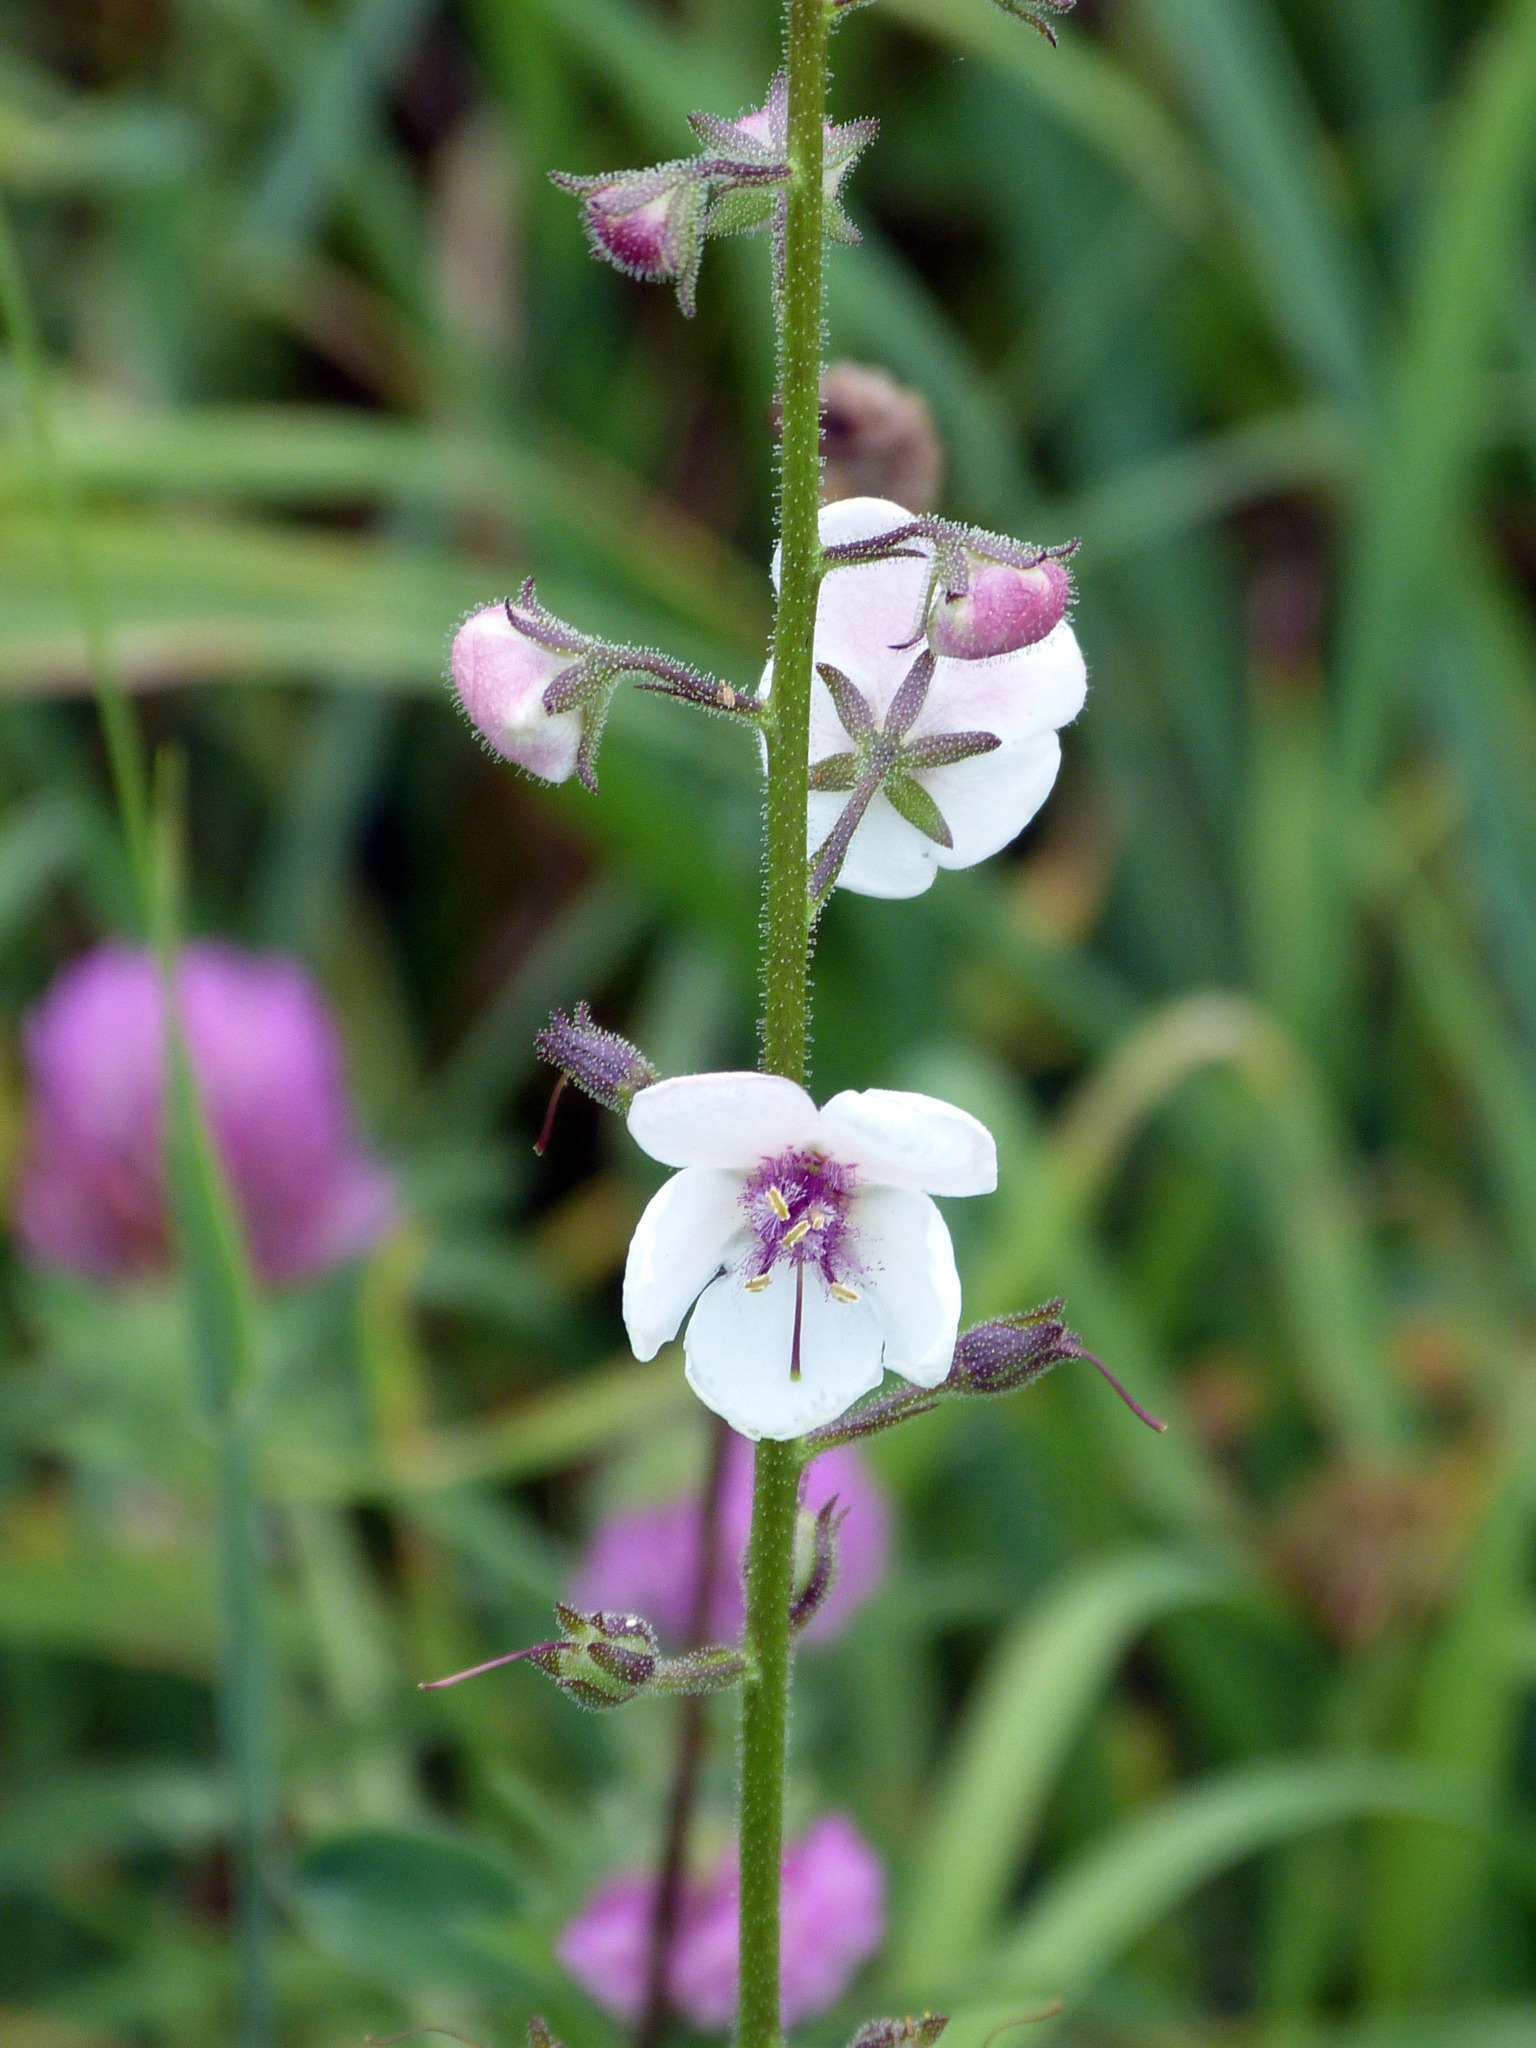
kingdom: Plantae
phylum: Tracheophyta
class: Magnoliopsida
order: Lamiales
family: Scrophulariaceae
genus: Verbascum
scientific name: Verbascum blattaria
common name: Moth mullein
